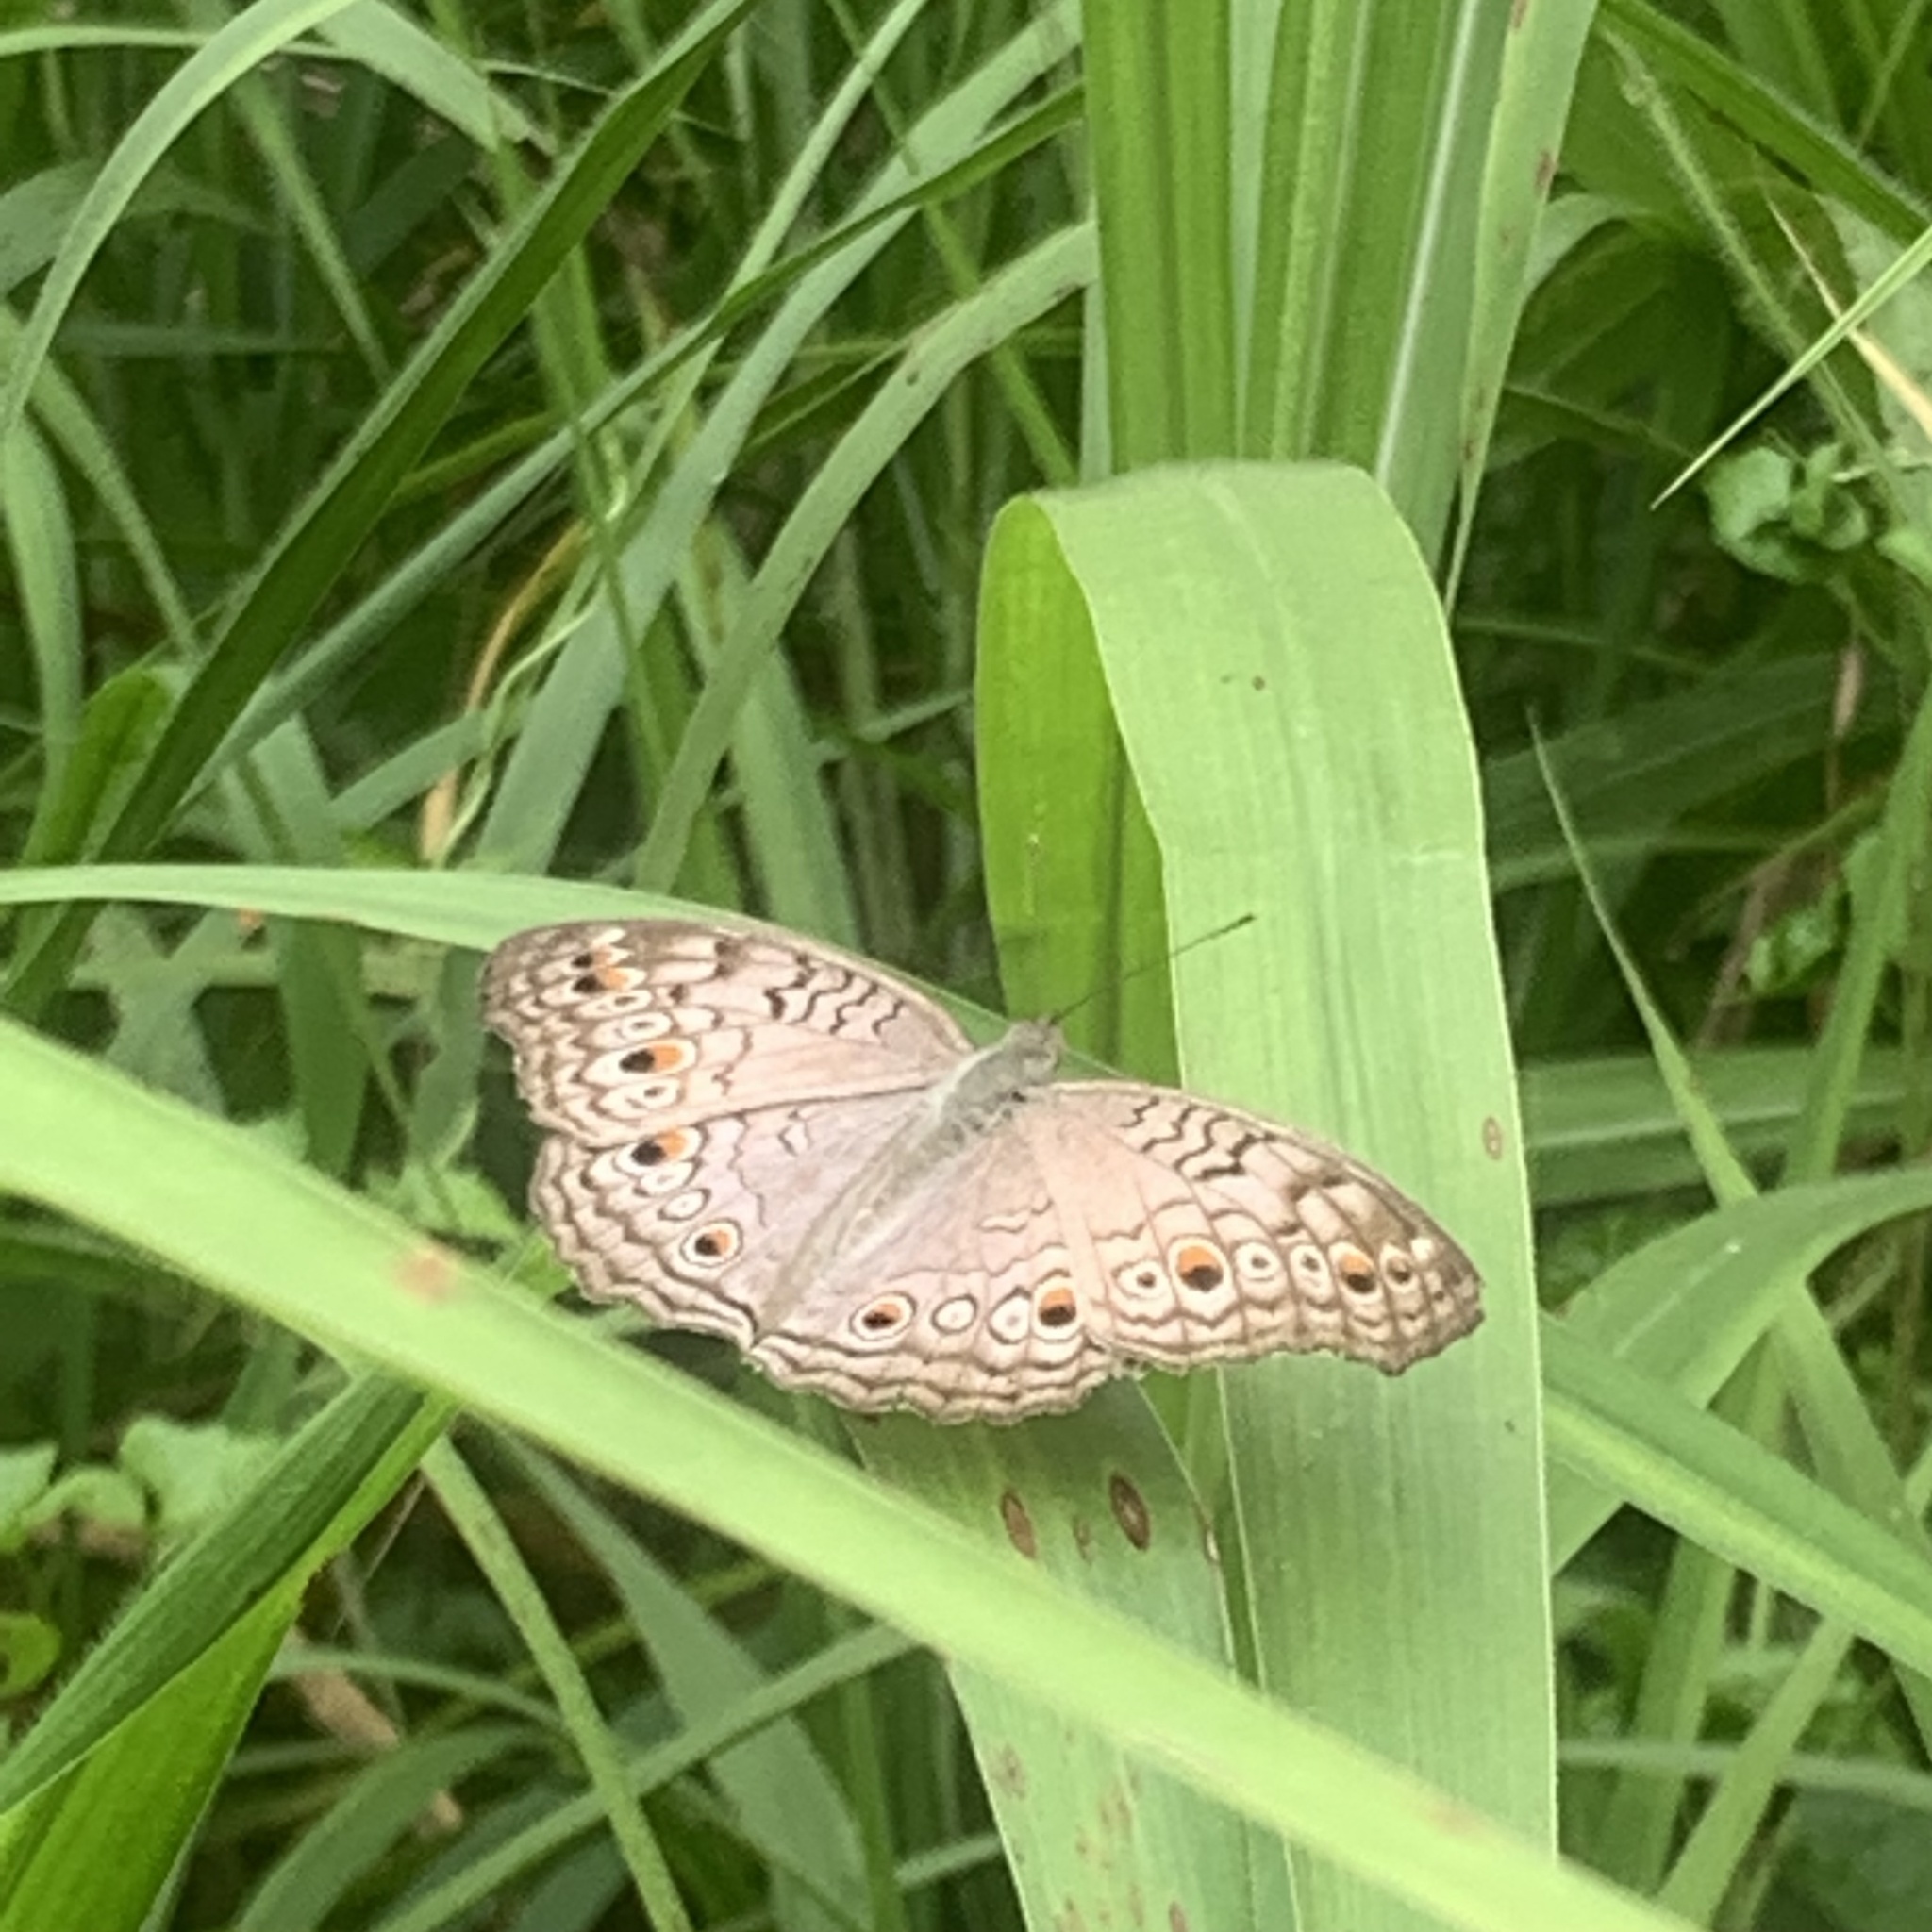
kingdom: Animalia
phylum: Arthropoda
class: Insecta
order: Lepidoptera
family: Nymphalidae
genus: Junonia
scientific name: Junonia atlites
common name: Grey pansy
